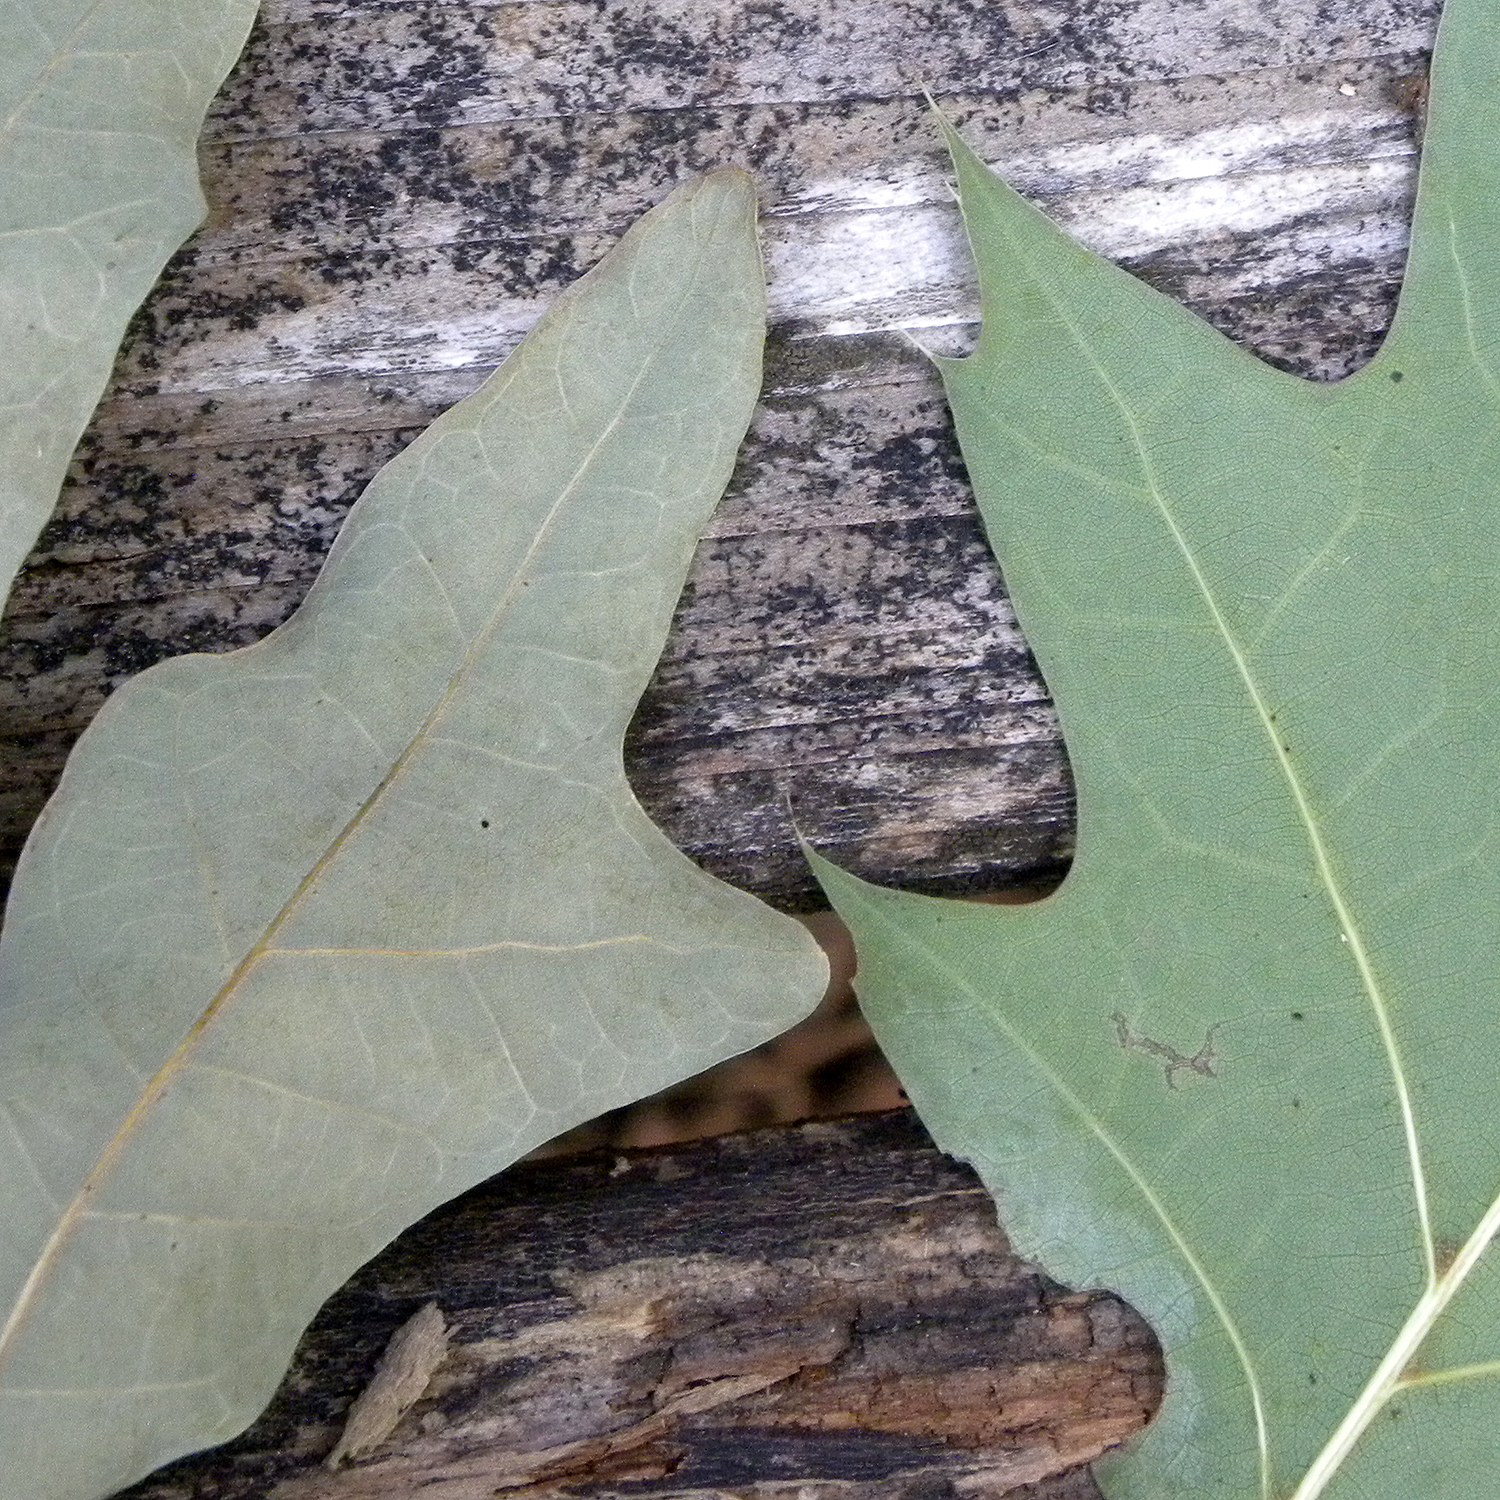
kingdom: Plantae
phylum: Tracheophyta
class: Magnoliopsida
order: Fagales
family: Fagaceae
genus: Quercus
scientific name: Quercus alba
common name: White oak
